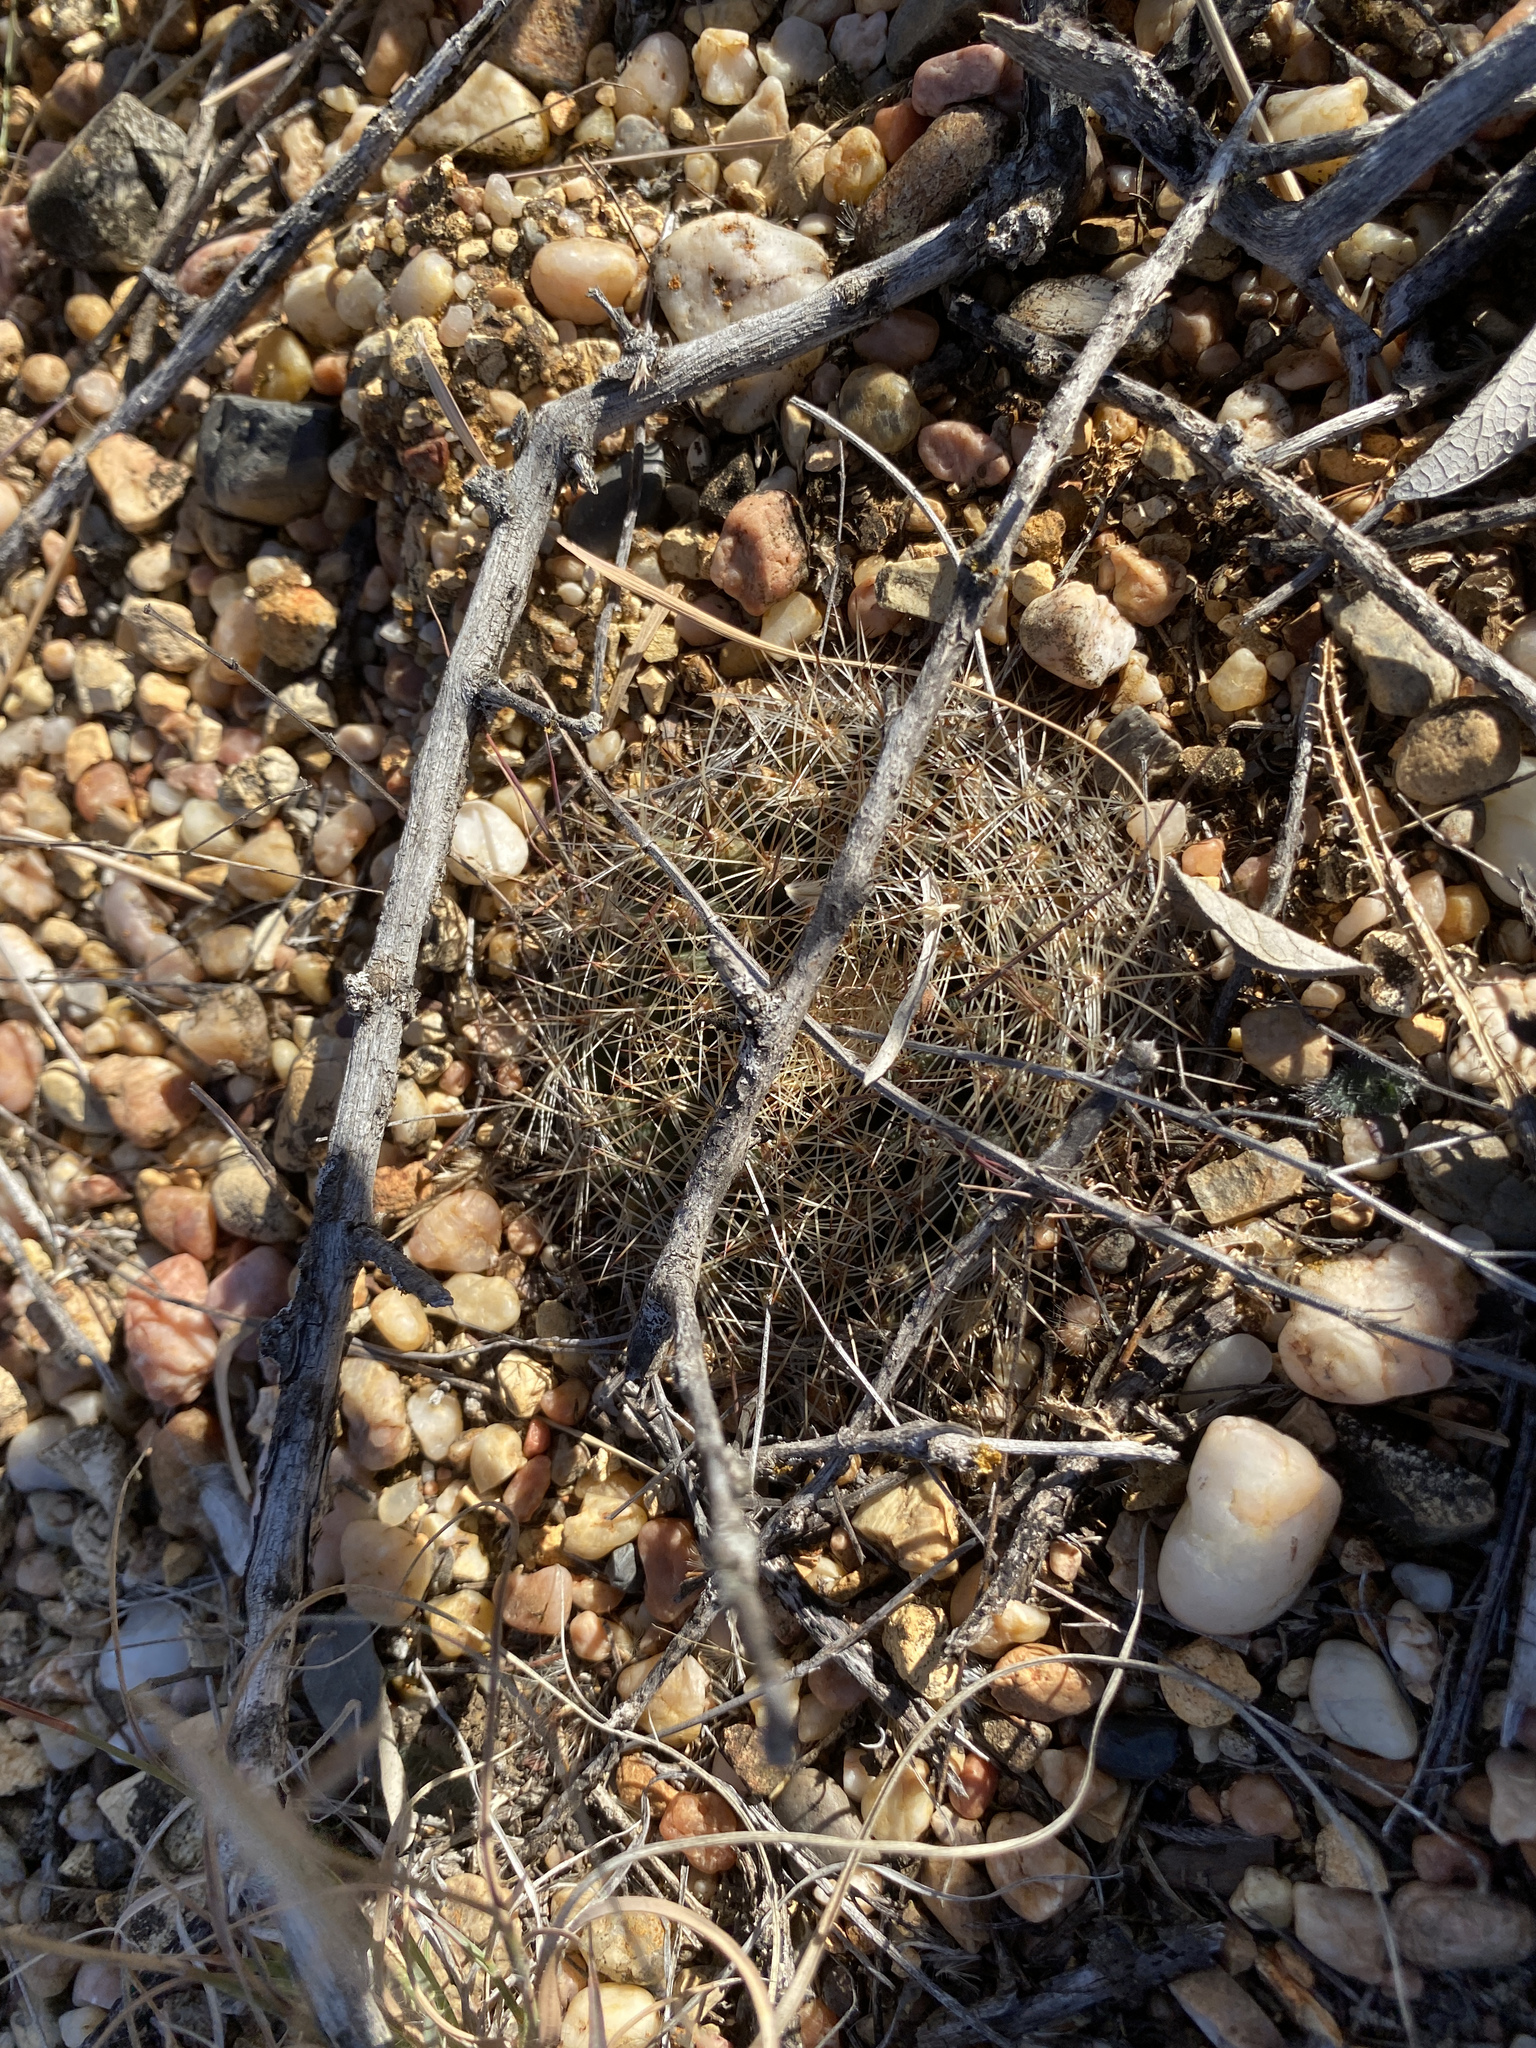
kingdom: Plantae
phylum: Tracheophyta
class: Magnoliopsida
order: Caryophyllales
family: Cactaceae
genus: Mammillaria
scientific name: Mammillaria heyderi
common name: Little nipple cactus
